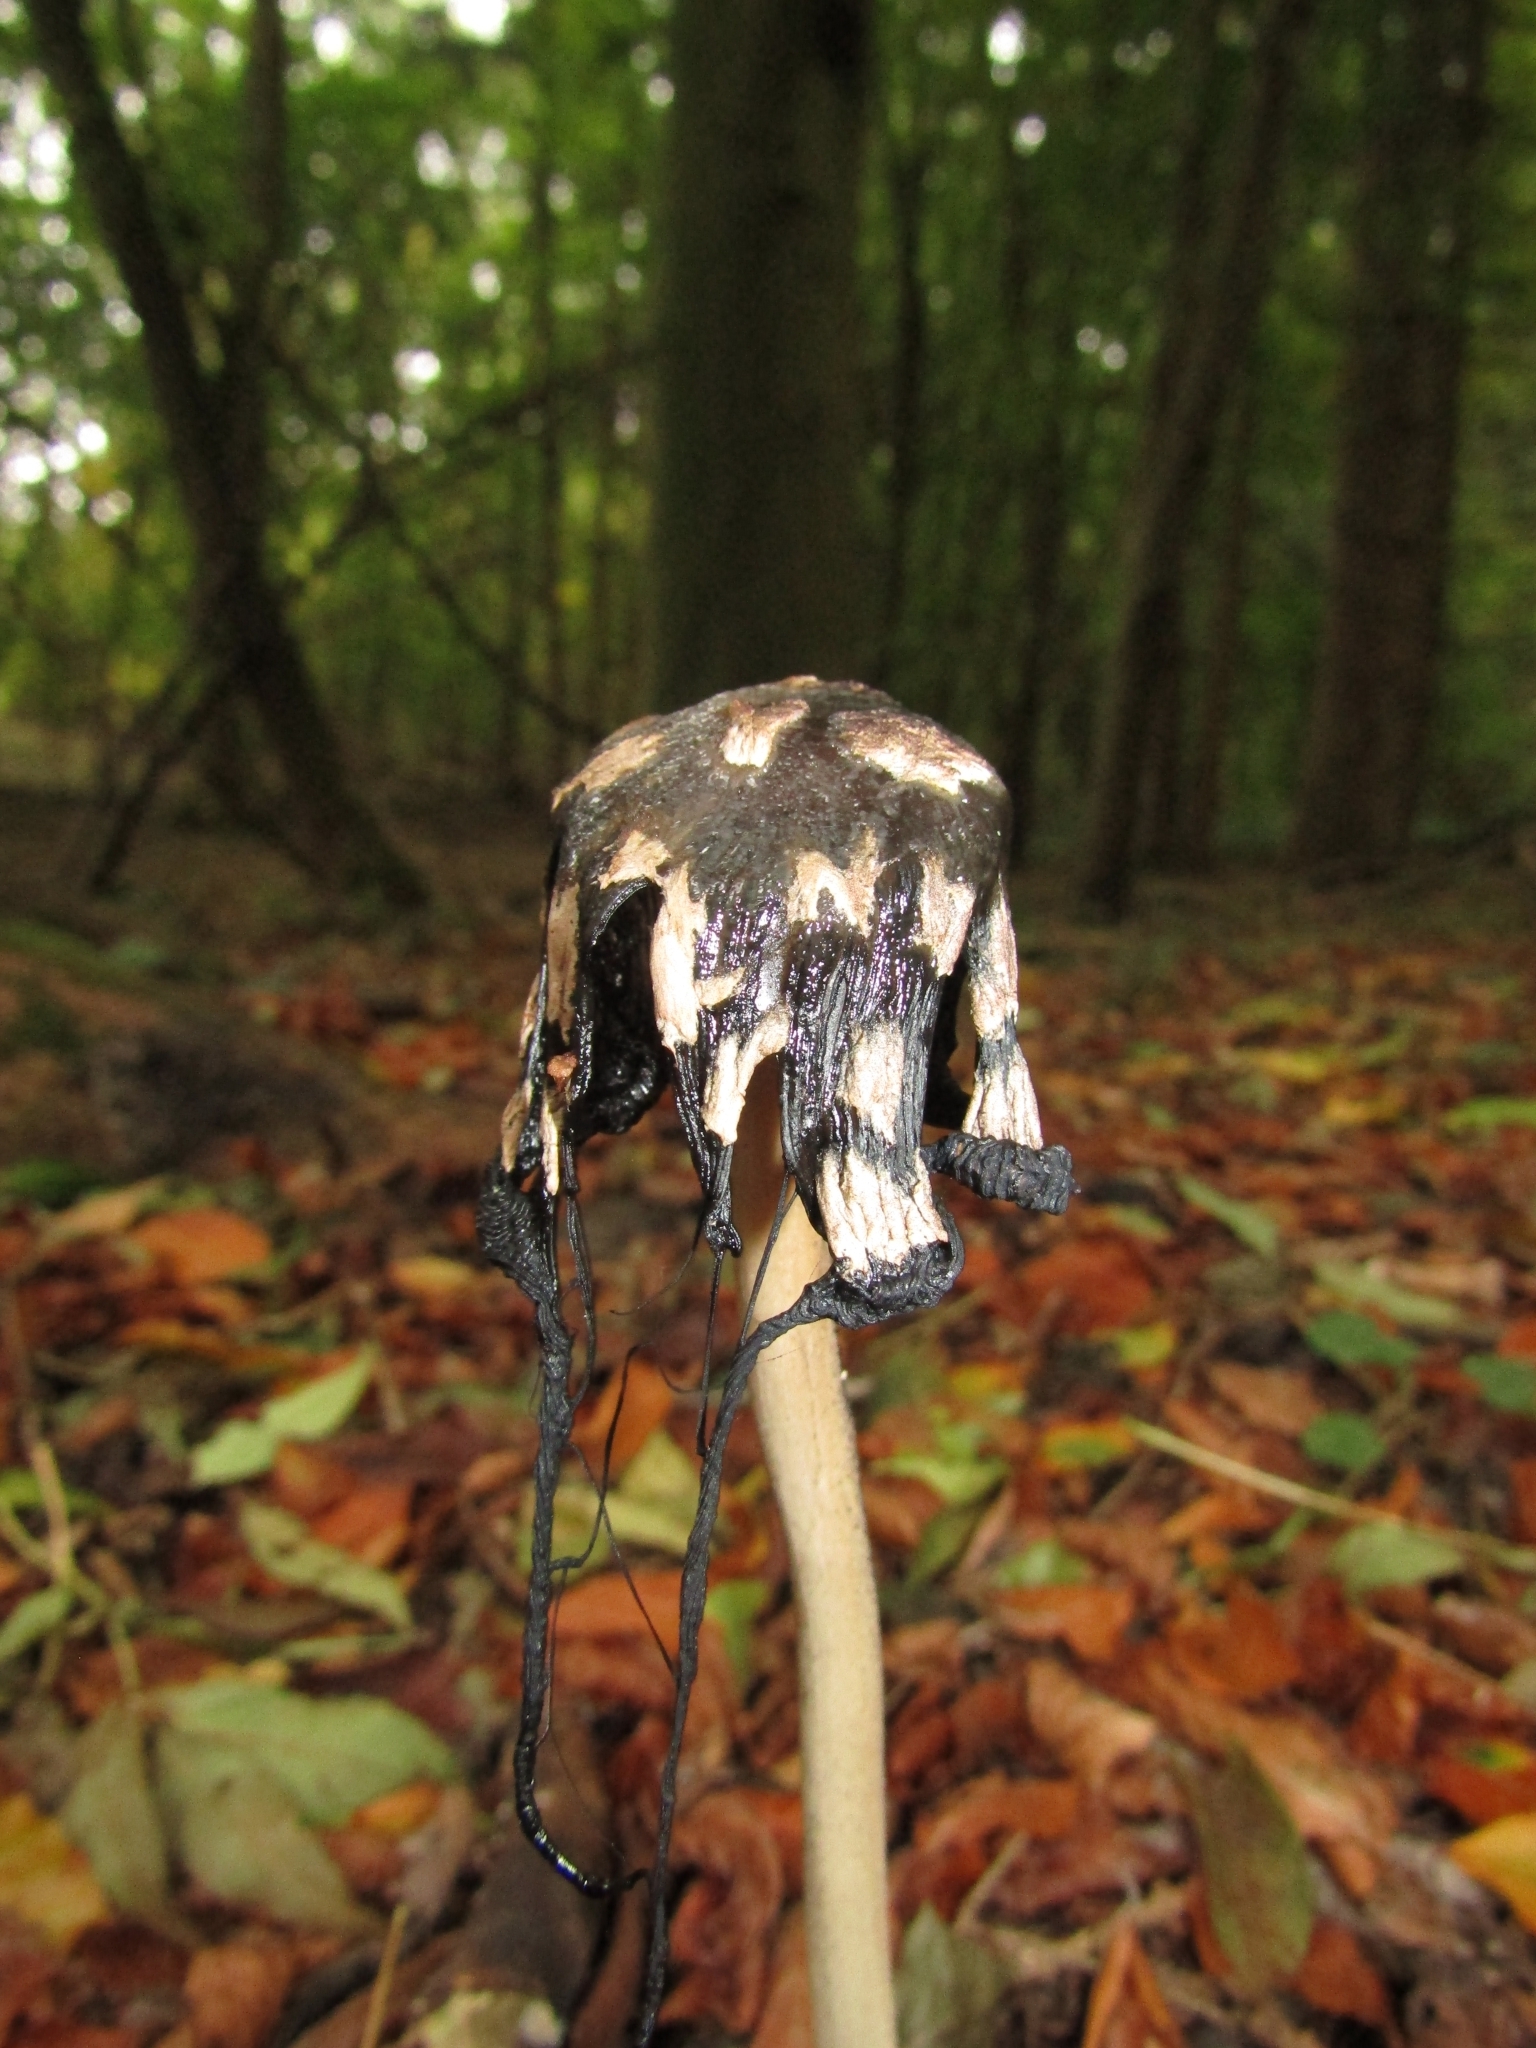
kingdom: Fungi
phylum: Basidiomycota
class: Agaricomycetes
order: Agaricales
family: Psathyrellaceae
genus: Coprinopsis
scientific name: Coprinopsis picacea
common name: Magpie inkcap
